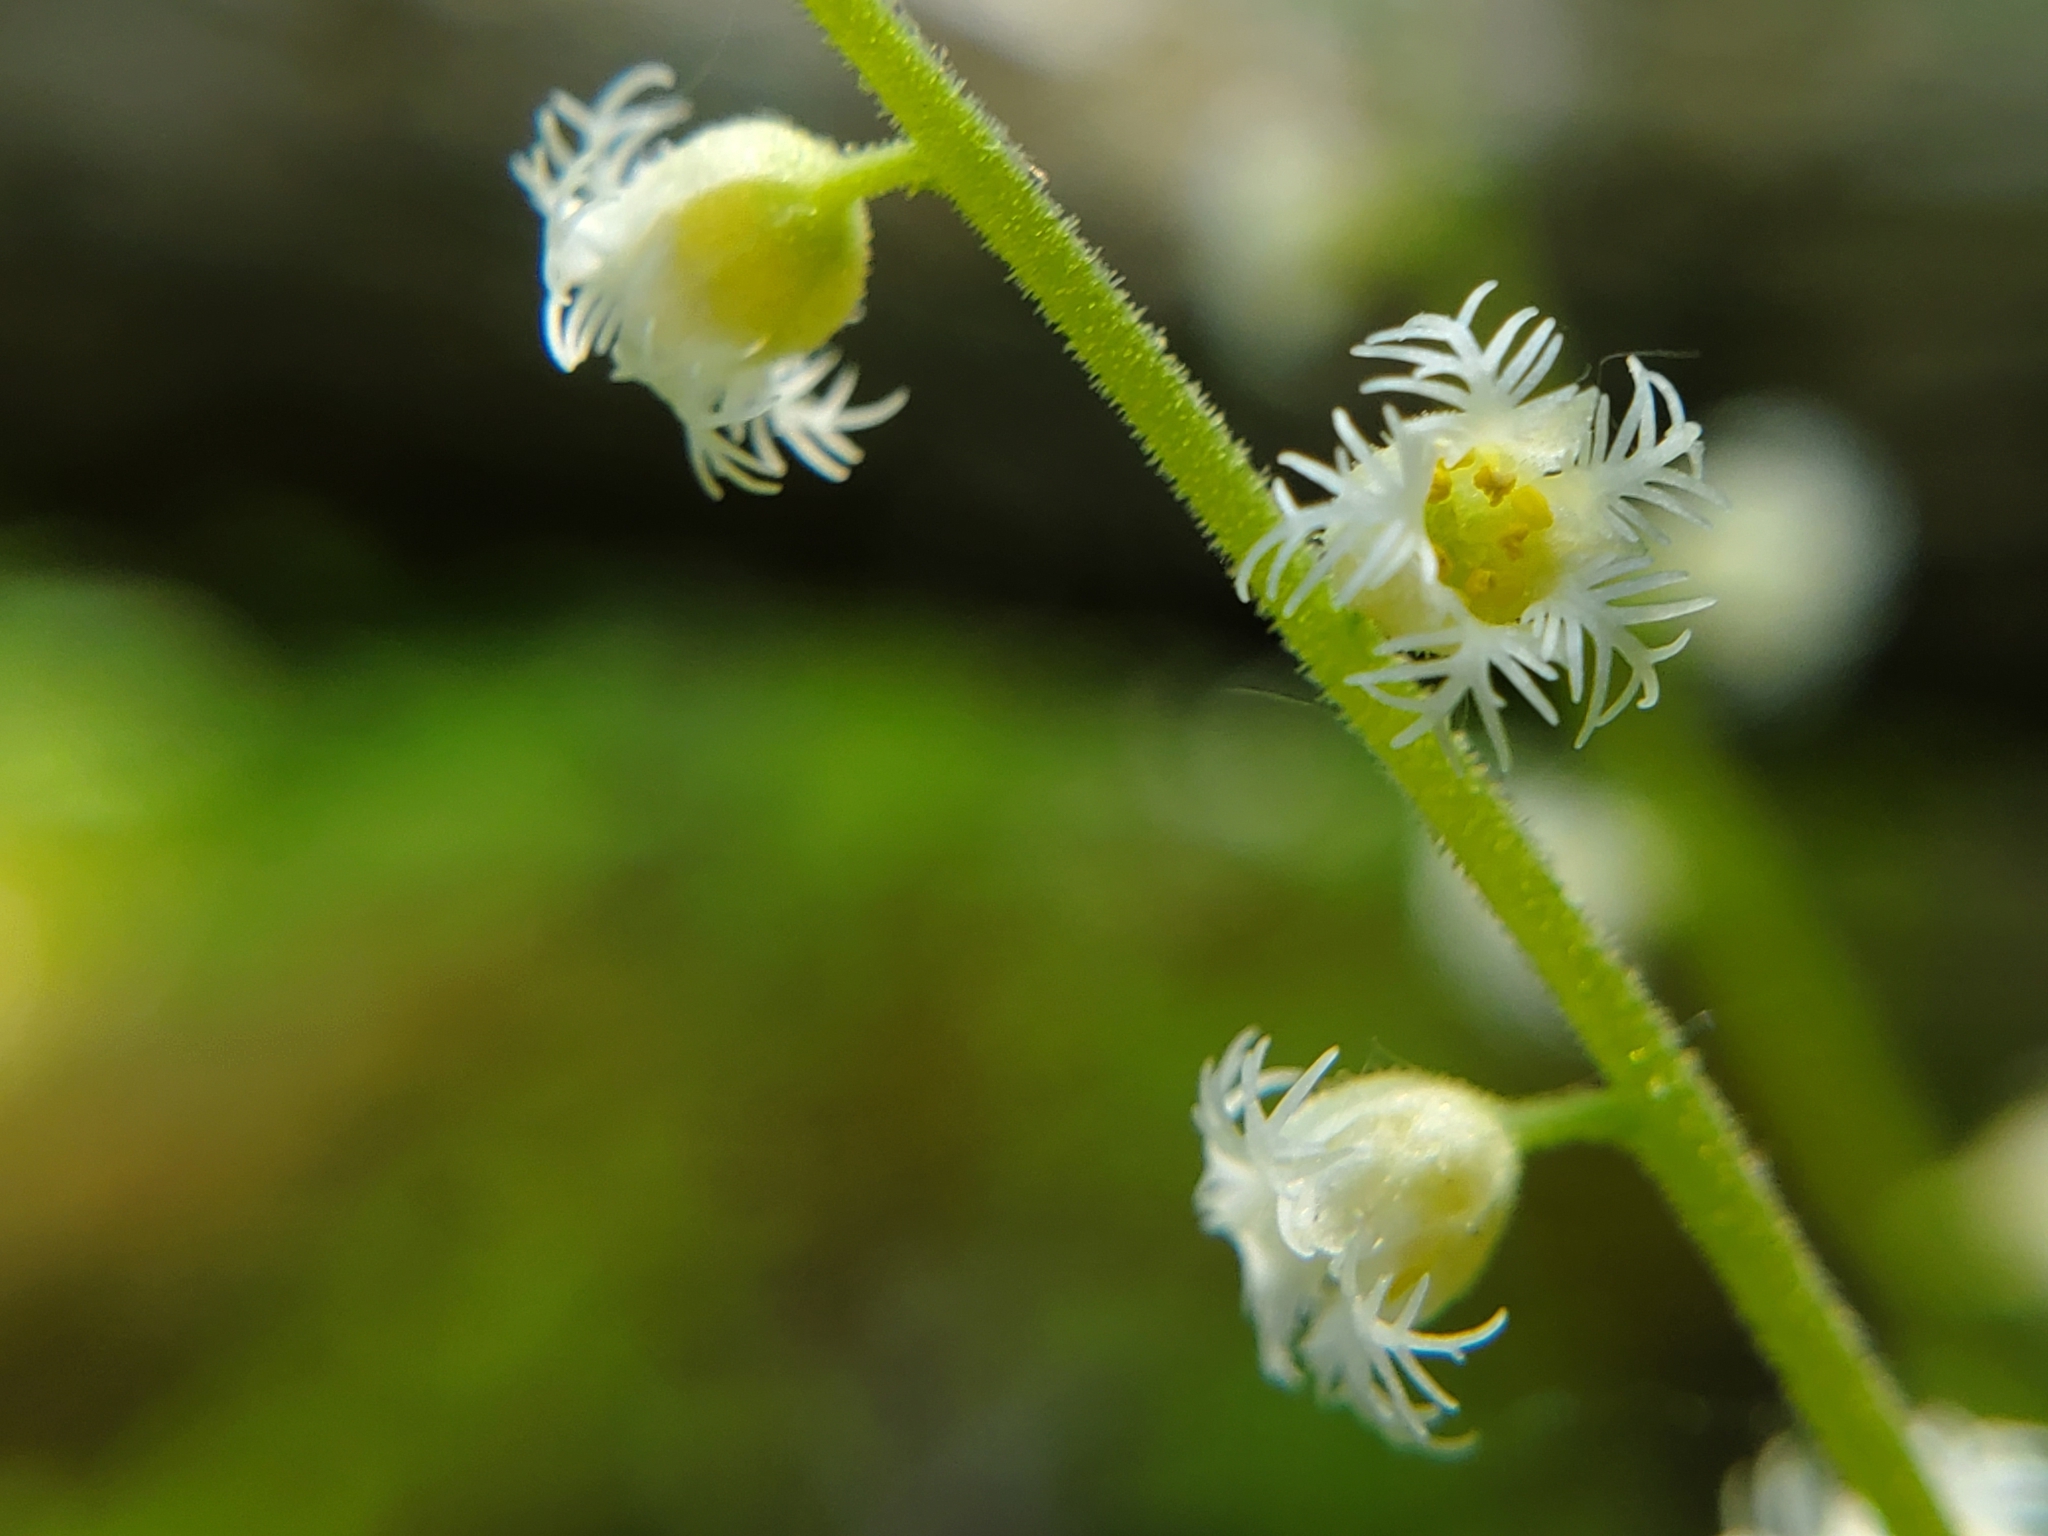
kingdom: Plantae
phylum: Tracheophyta
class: Magnoliopsida
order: Saxifragales
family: Saxifragaceae
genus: Mitella
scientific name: Mitella diphylla
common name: Coolwort
